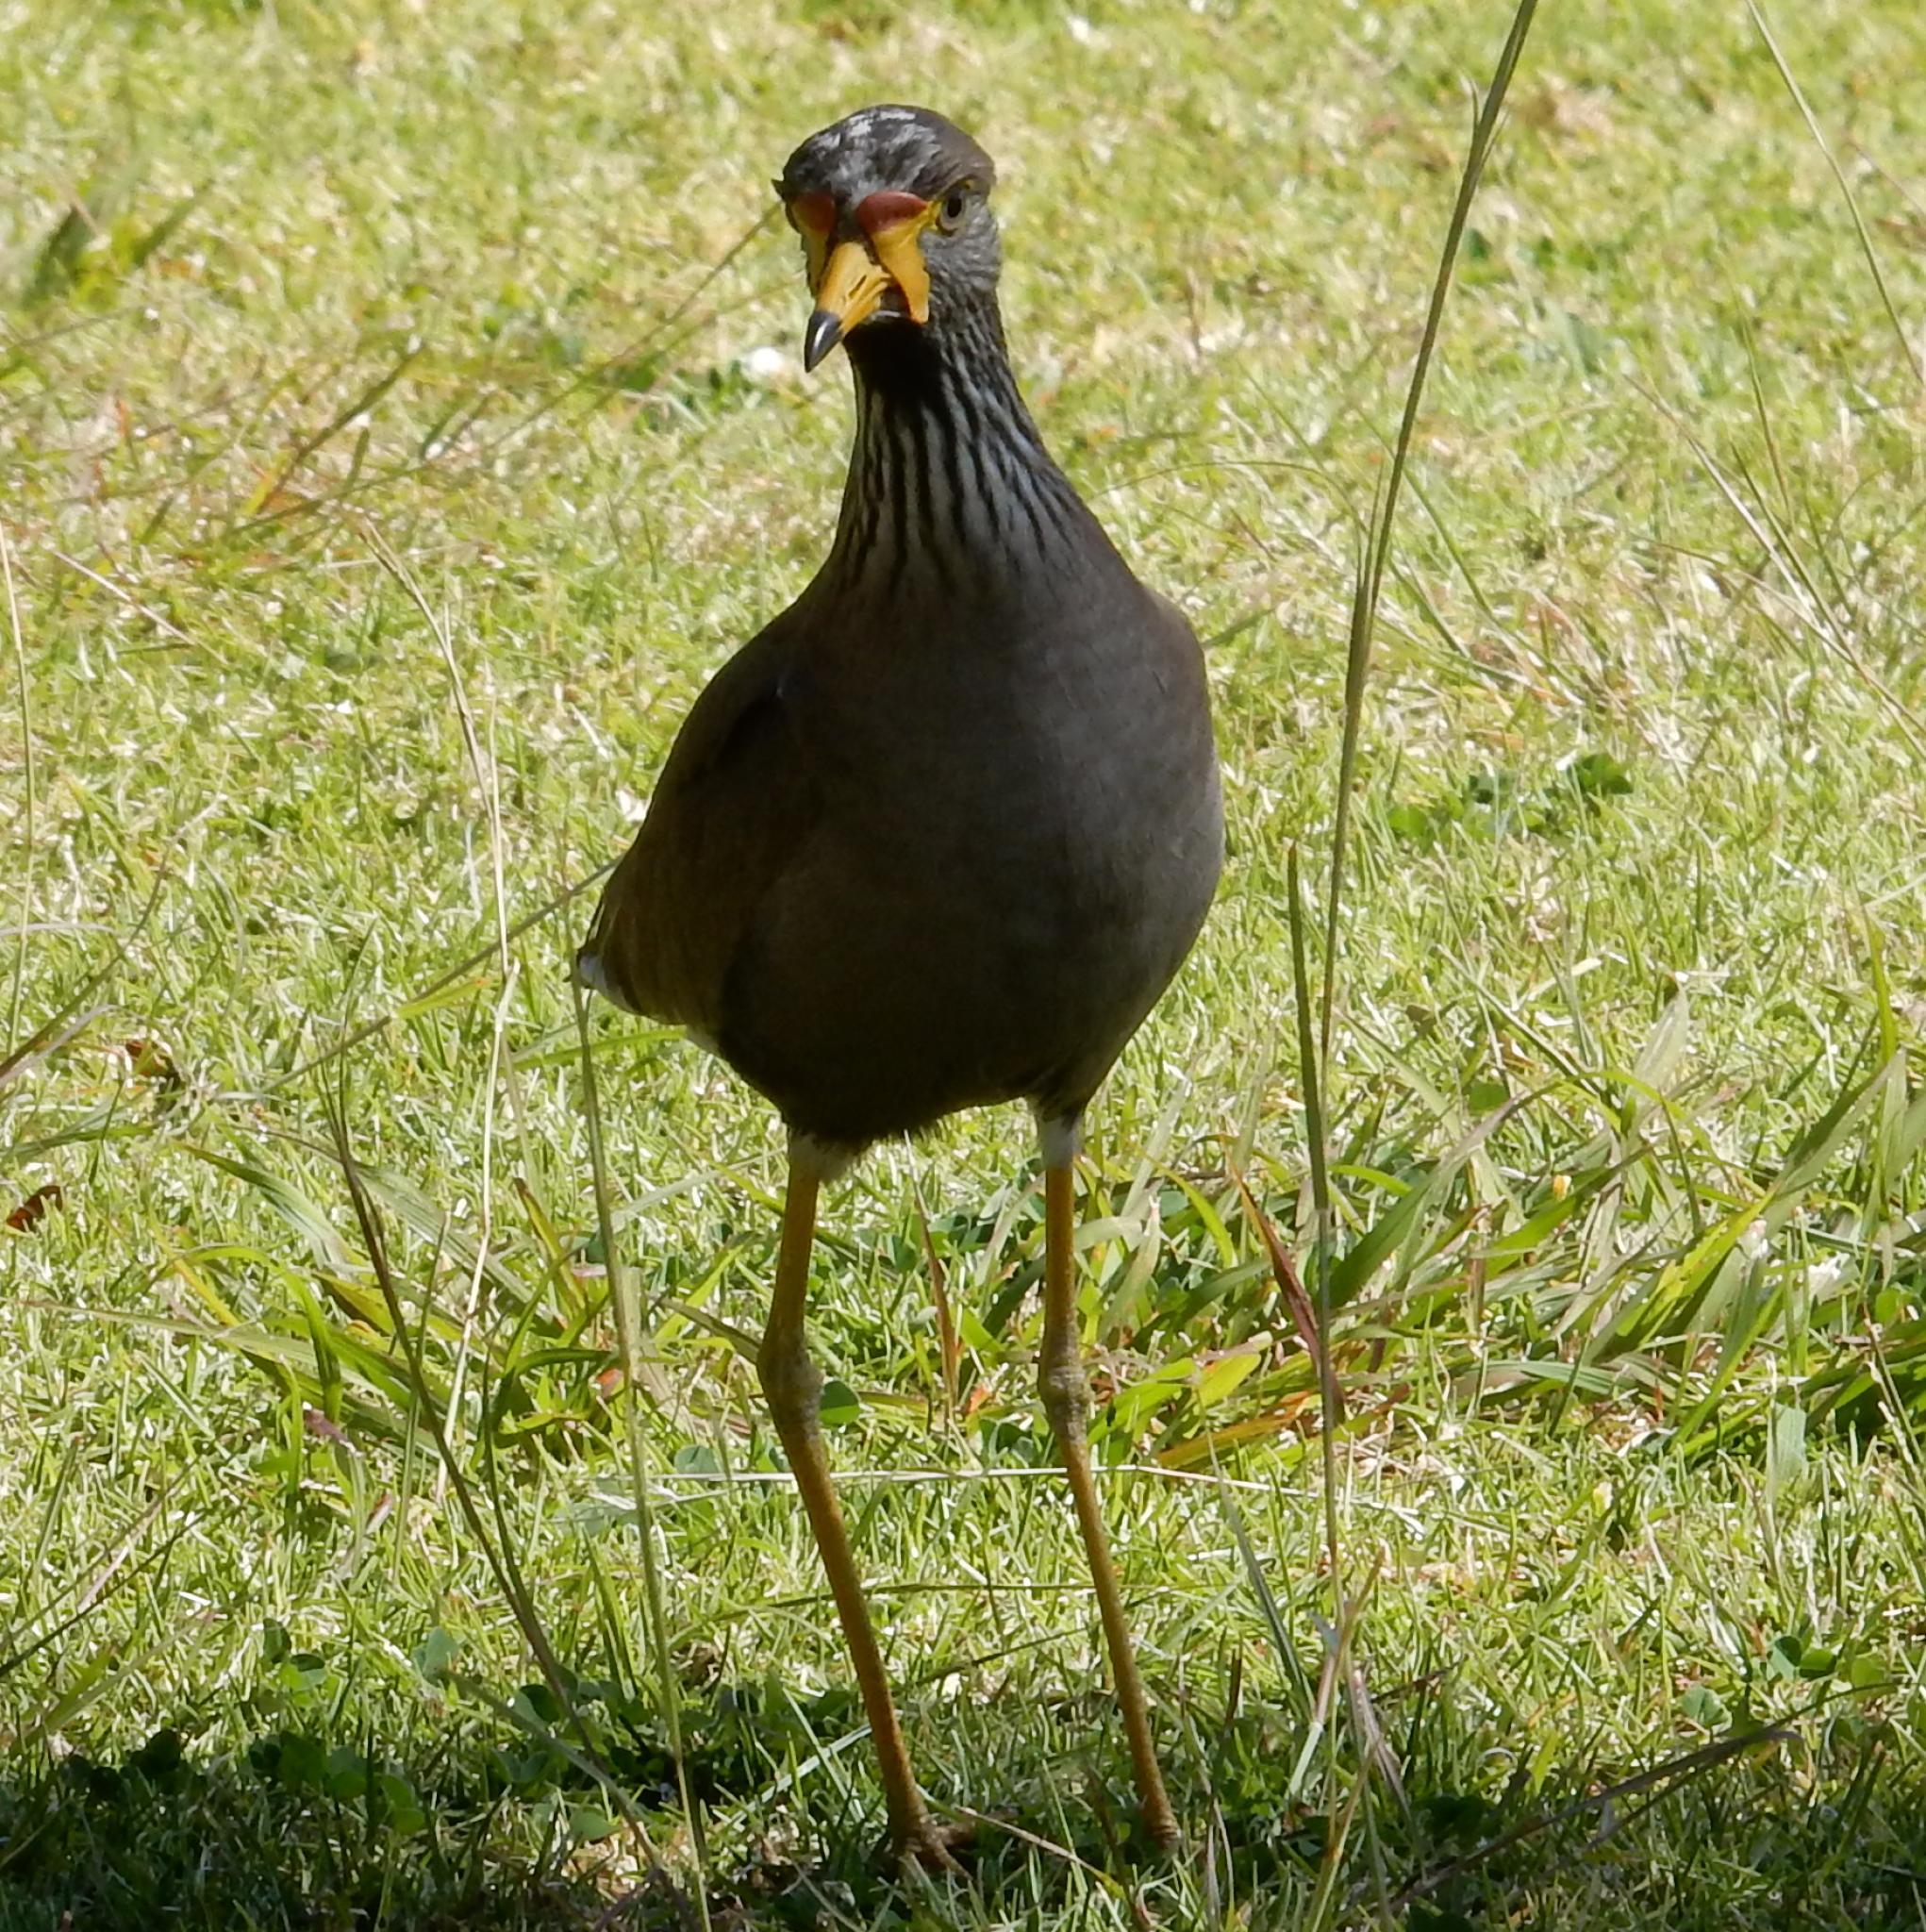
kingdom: Animalia
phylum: Chordata
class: Aves
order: Charadriiformes
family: Charadriidae
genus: Vanellus
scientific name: Vanellus senegallus
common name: African wattled lapwing
